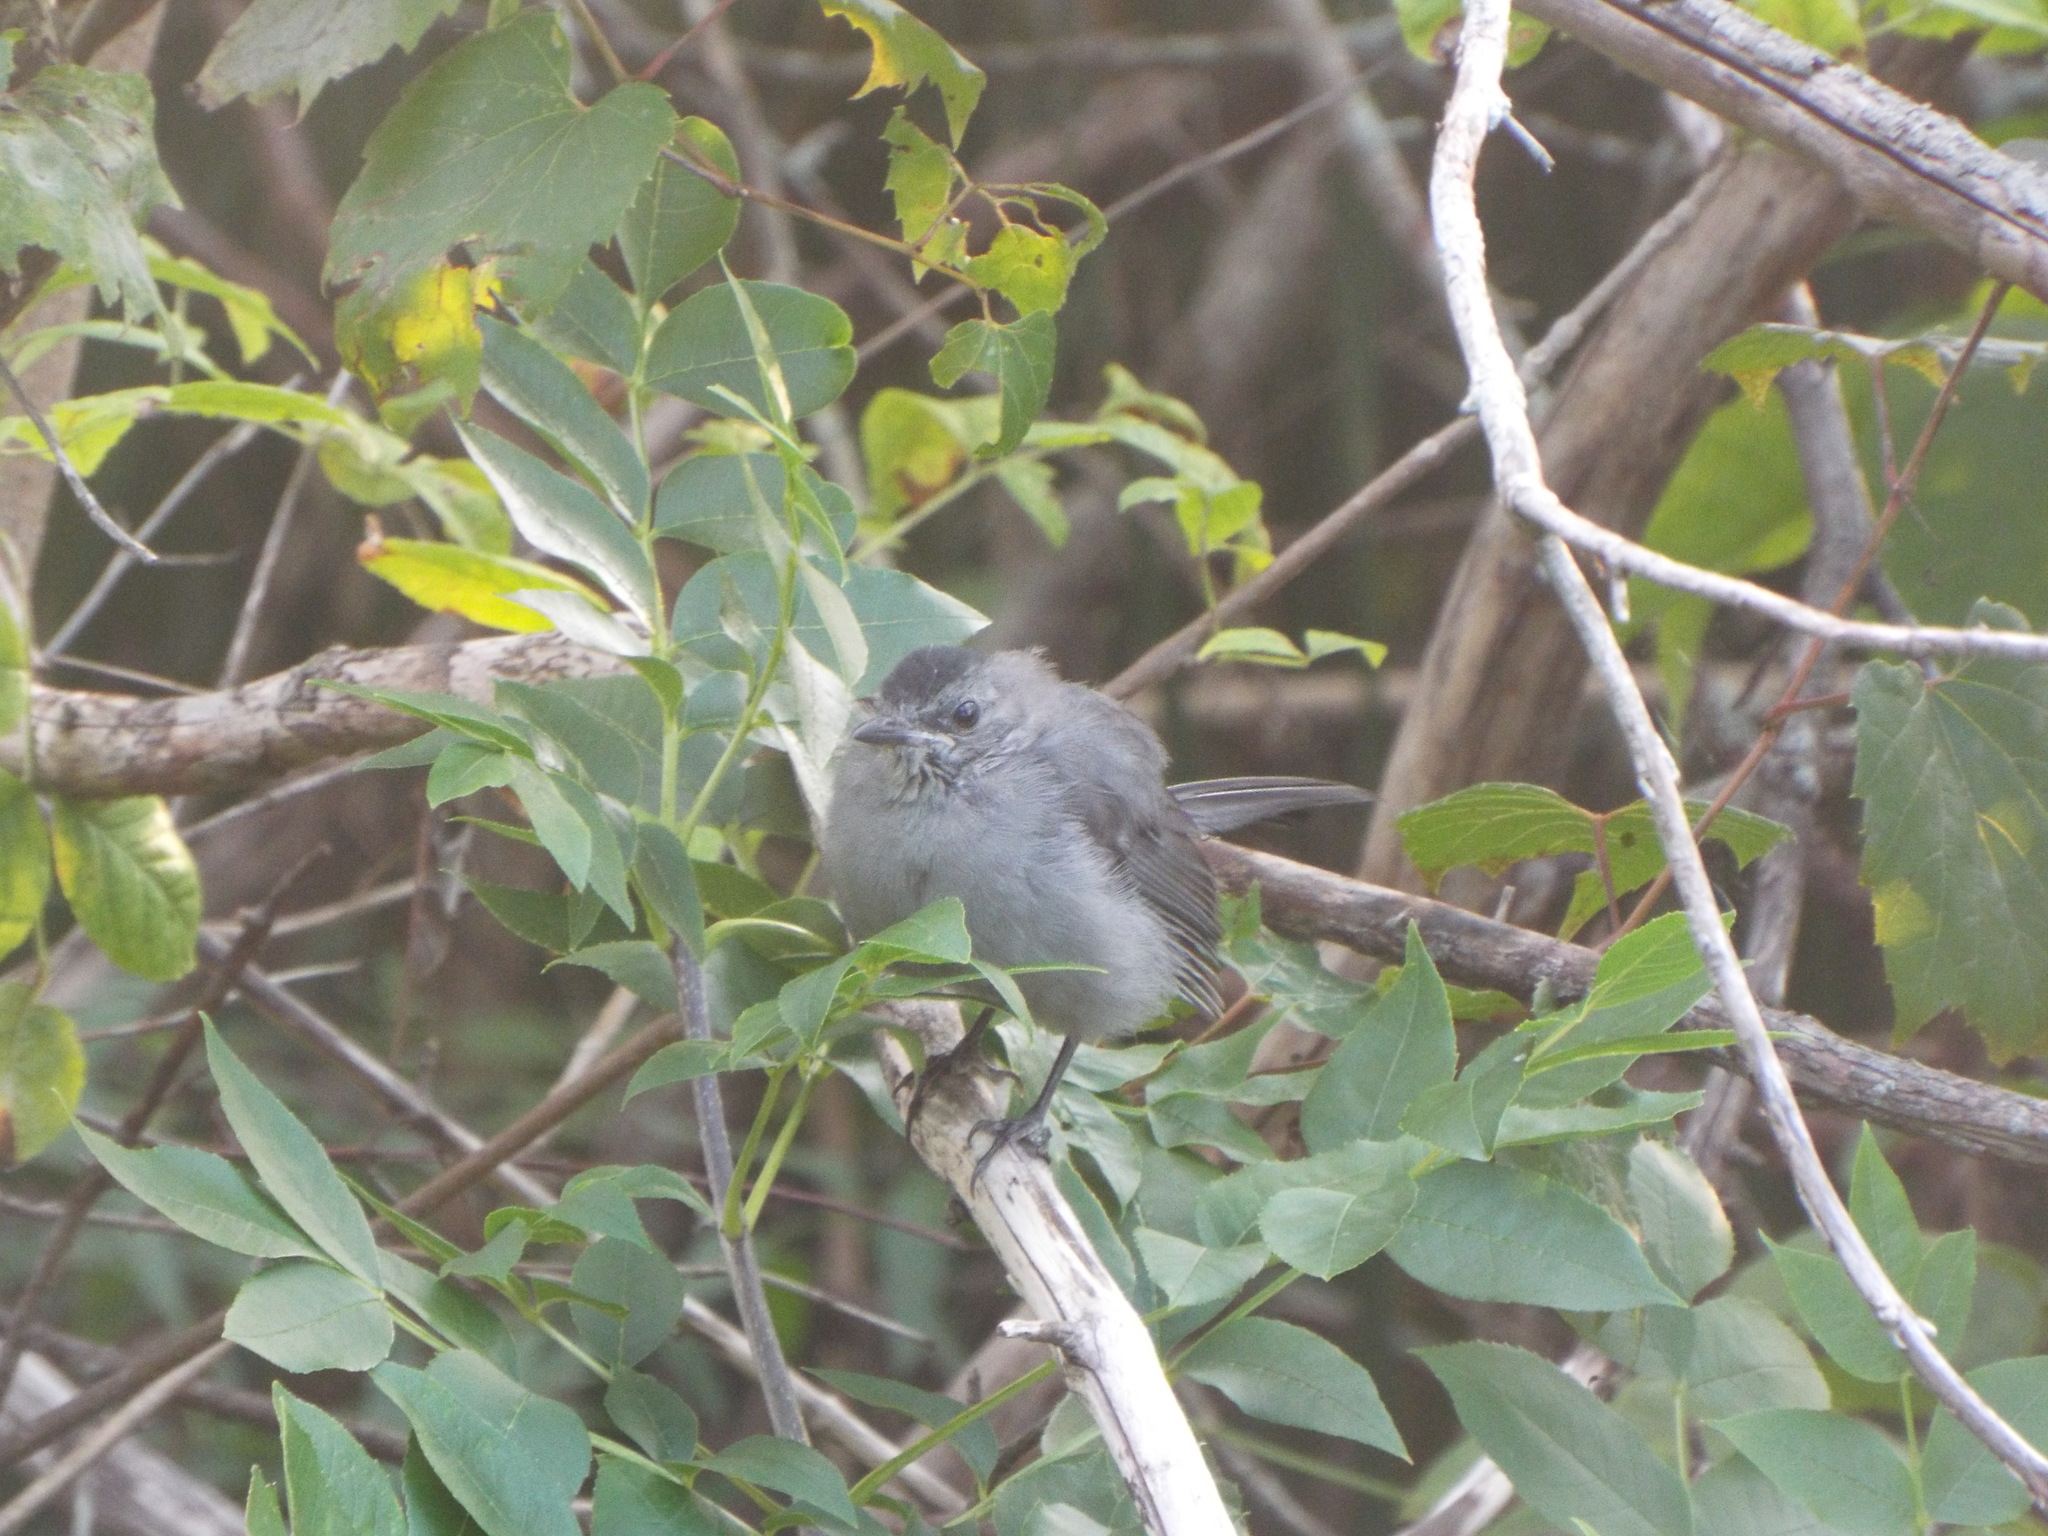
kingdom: Animalia
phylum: Chordata
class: Aves
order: Passeriformes
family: Mimidae
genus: Dumetella
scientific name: Dumetella carolinensis
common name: Gray catbird
